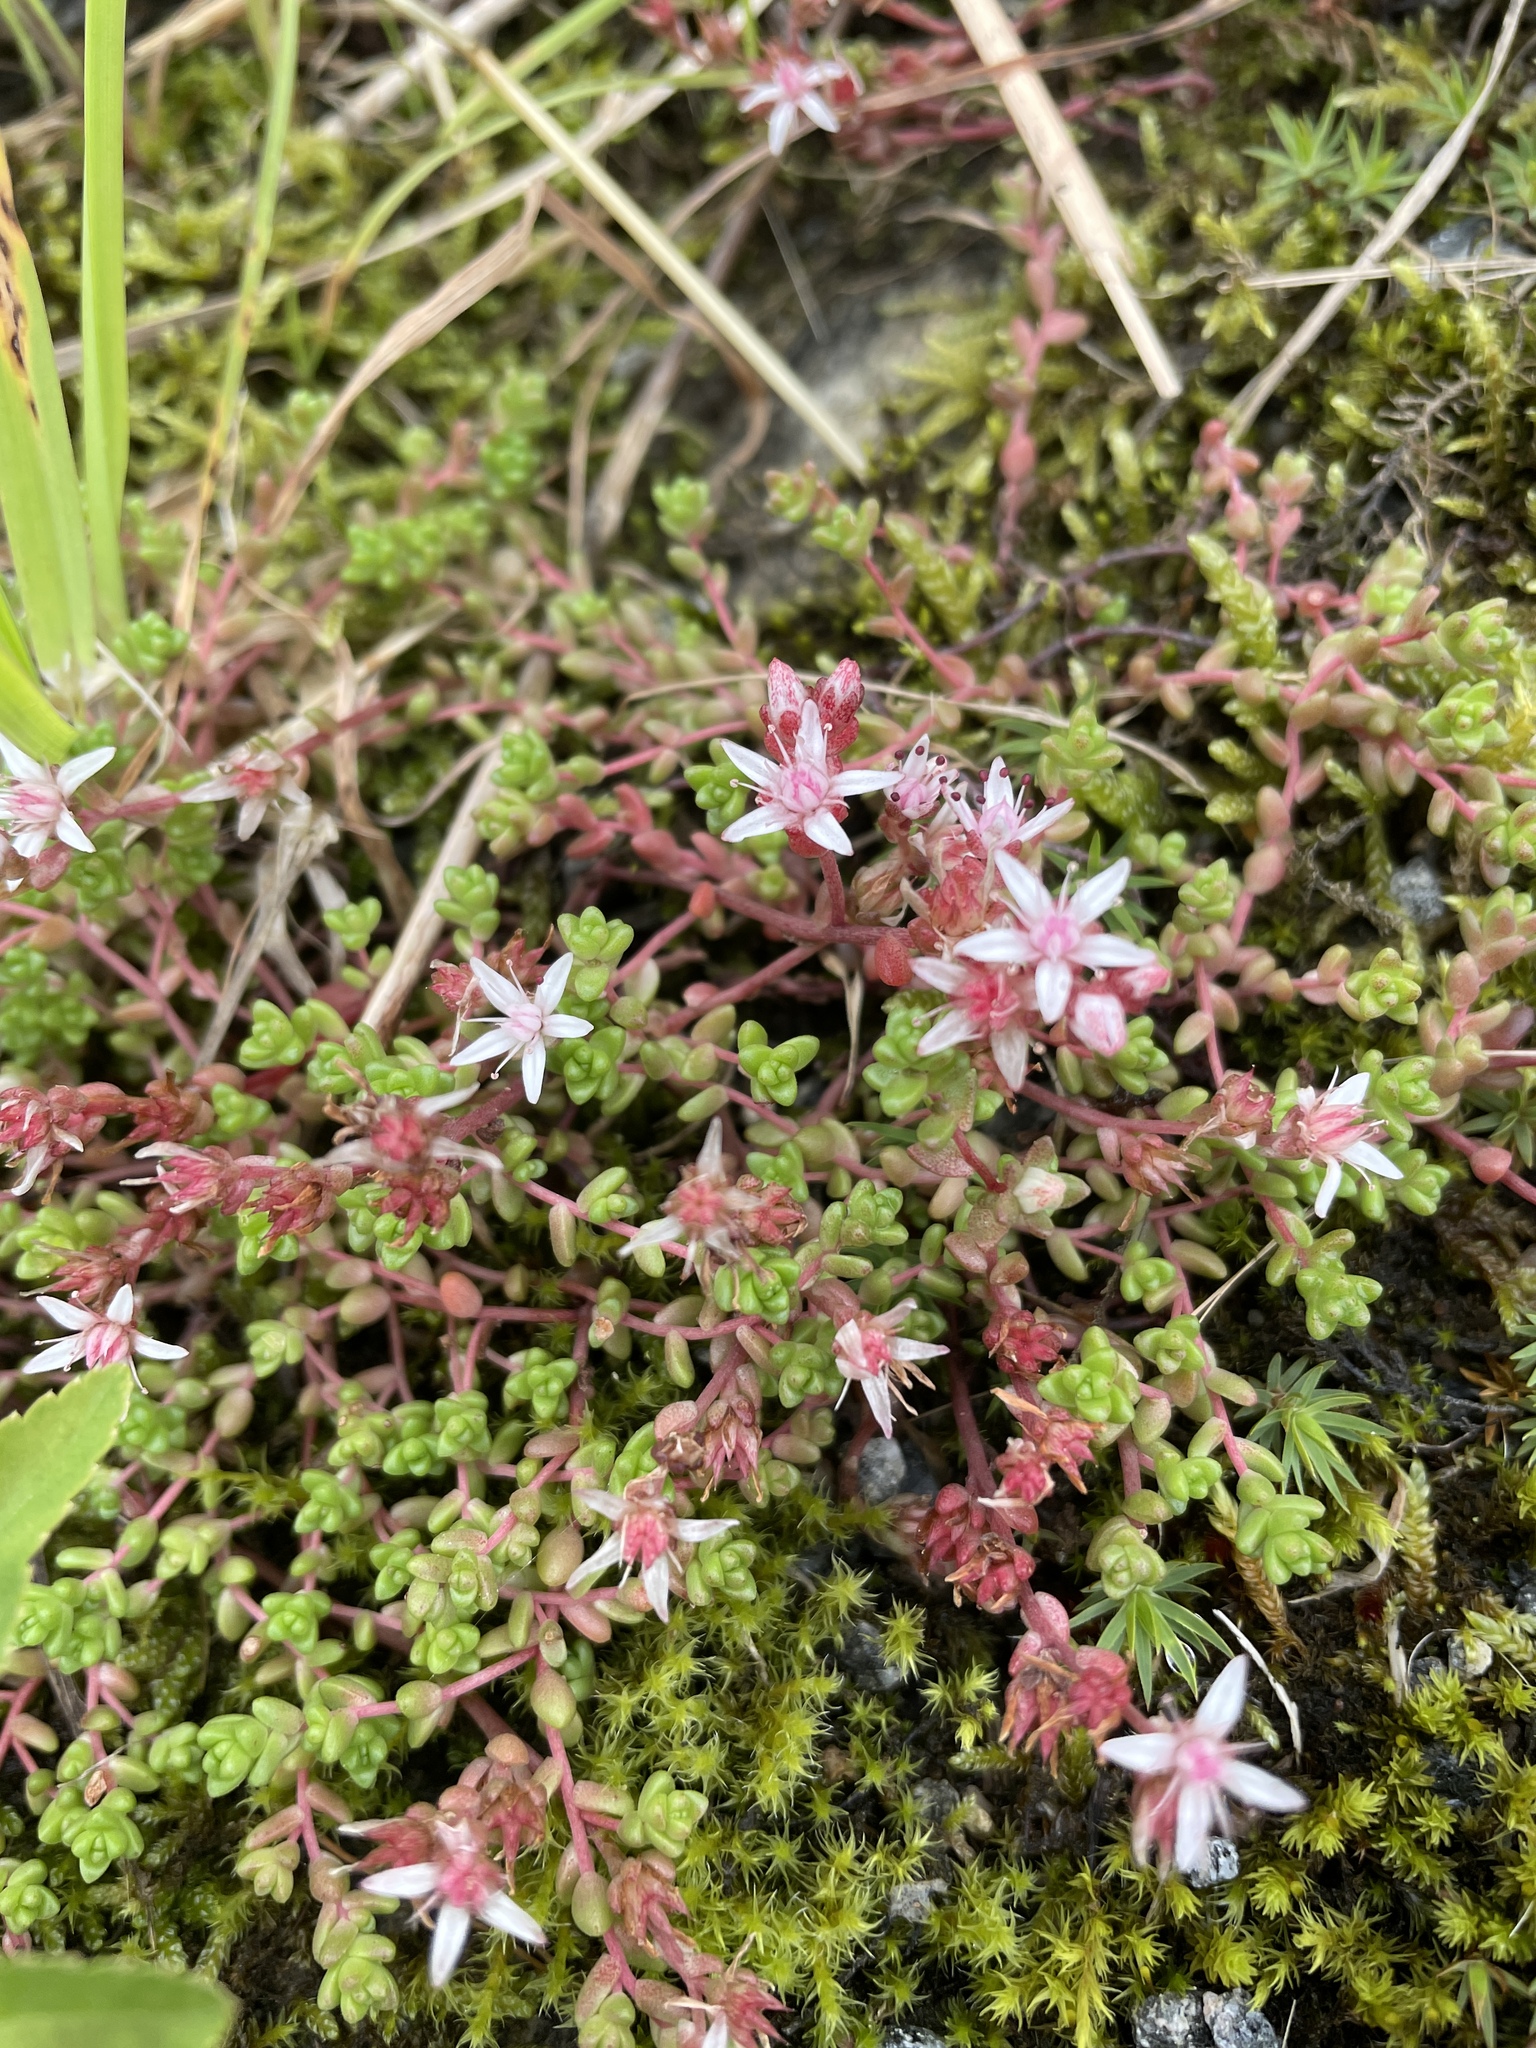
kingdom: Plantae
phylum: Tracheophyta
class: Magnoliopsida
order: Saxifragales
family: Crassulaceae
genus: Sedum
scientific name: Sedum anglicum
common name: English stonecrop
